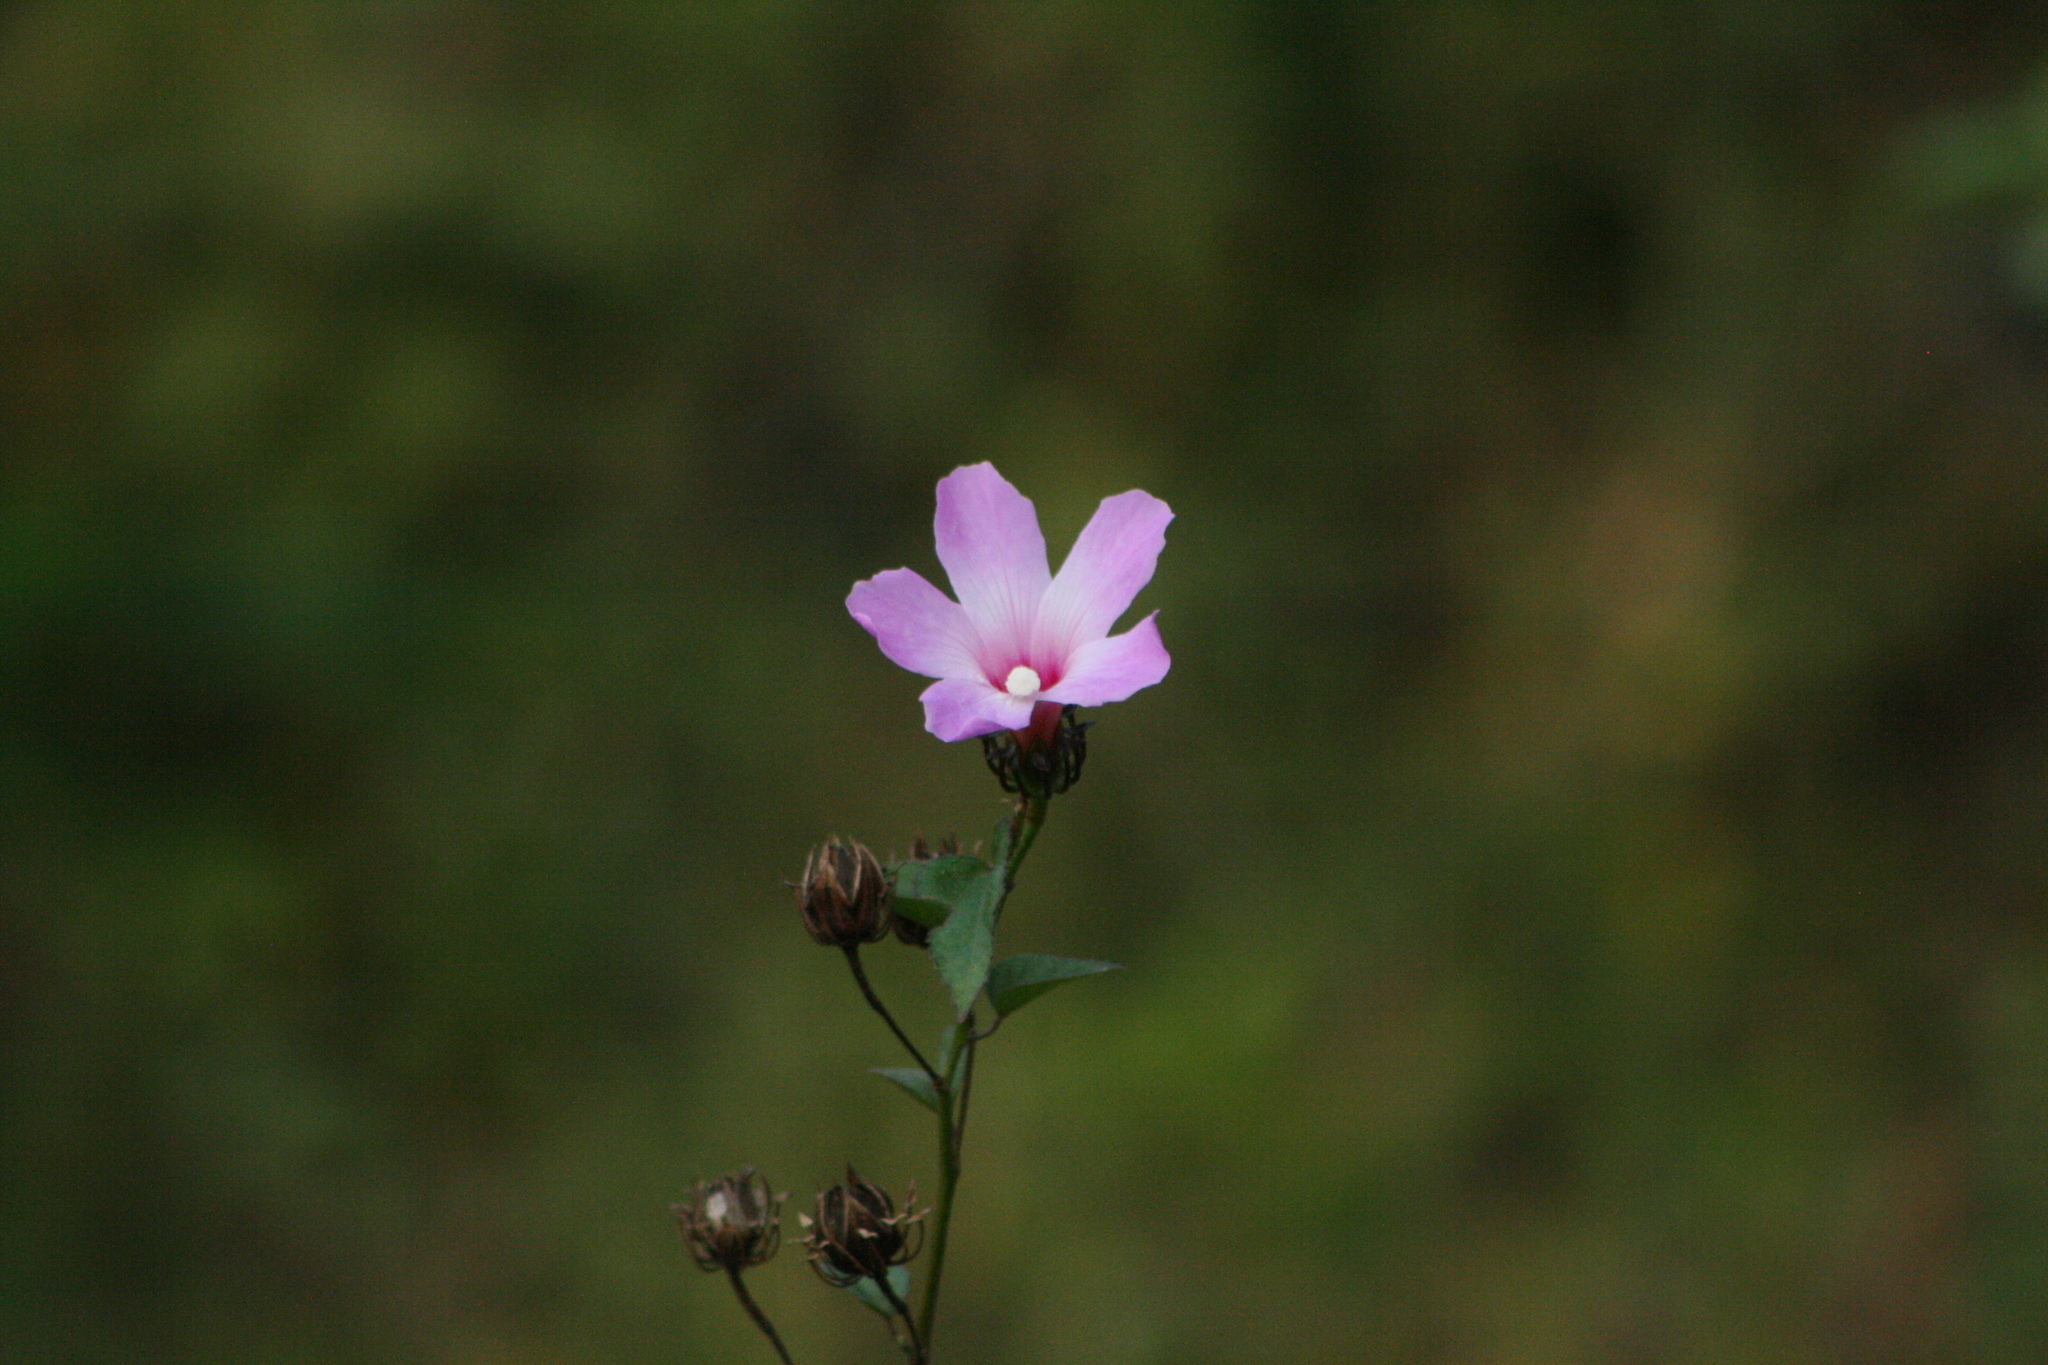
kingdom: Plantae
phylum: Tracheophyta
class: Magnoliopsida
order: Malvales
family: Malvaceae
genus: Hibiscus
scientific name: Hibiscus costatus
